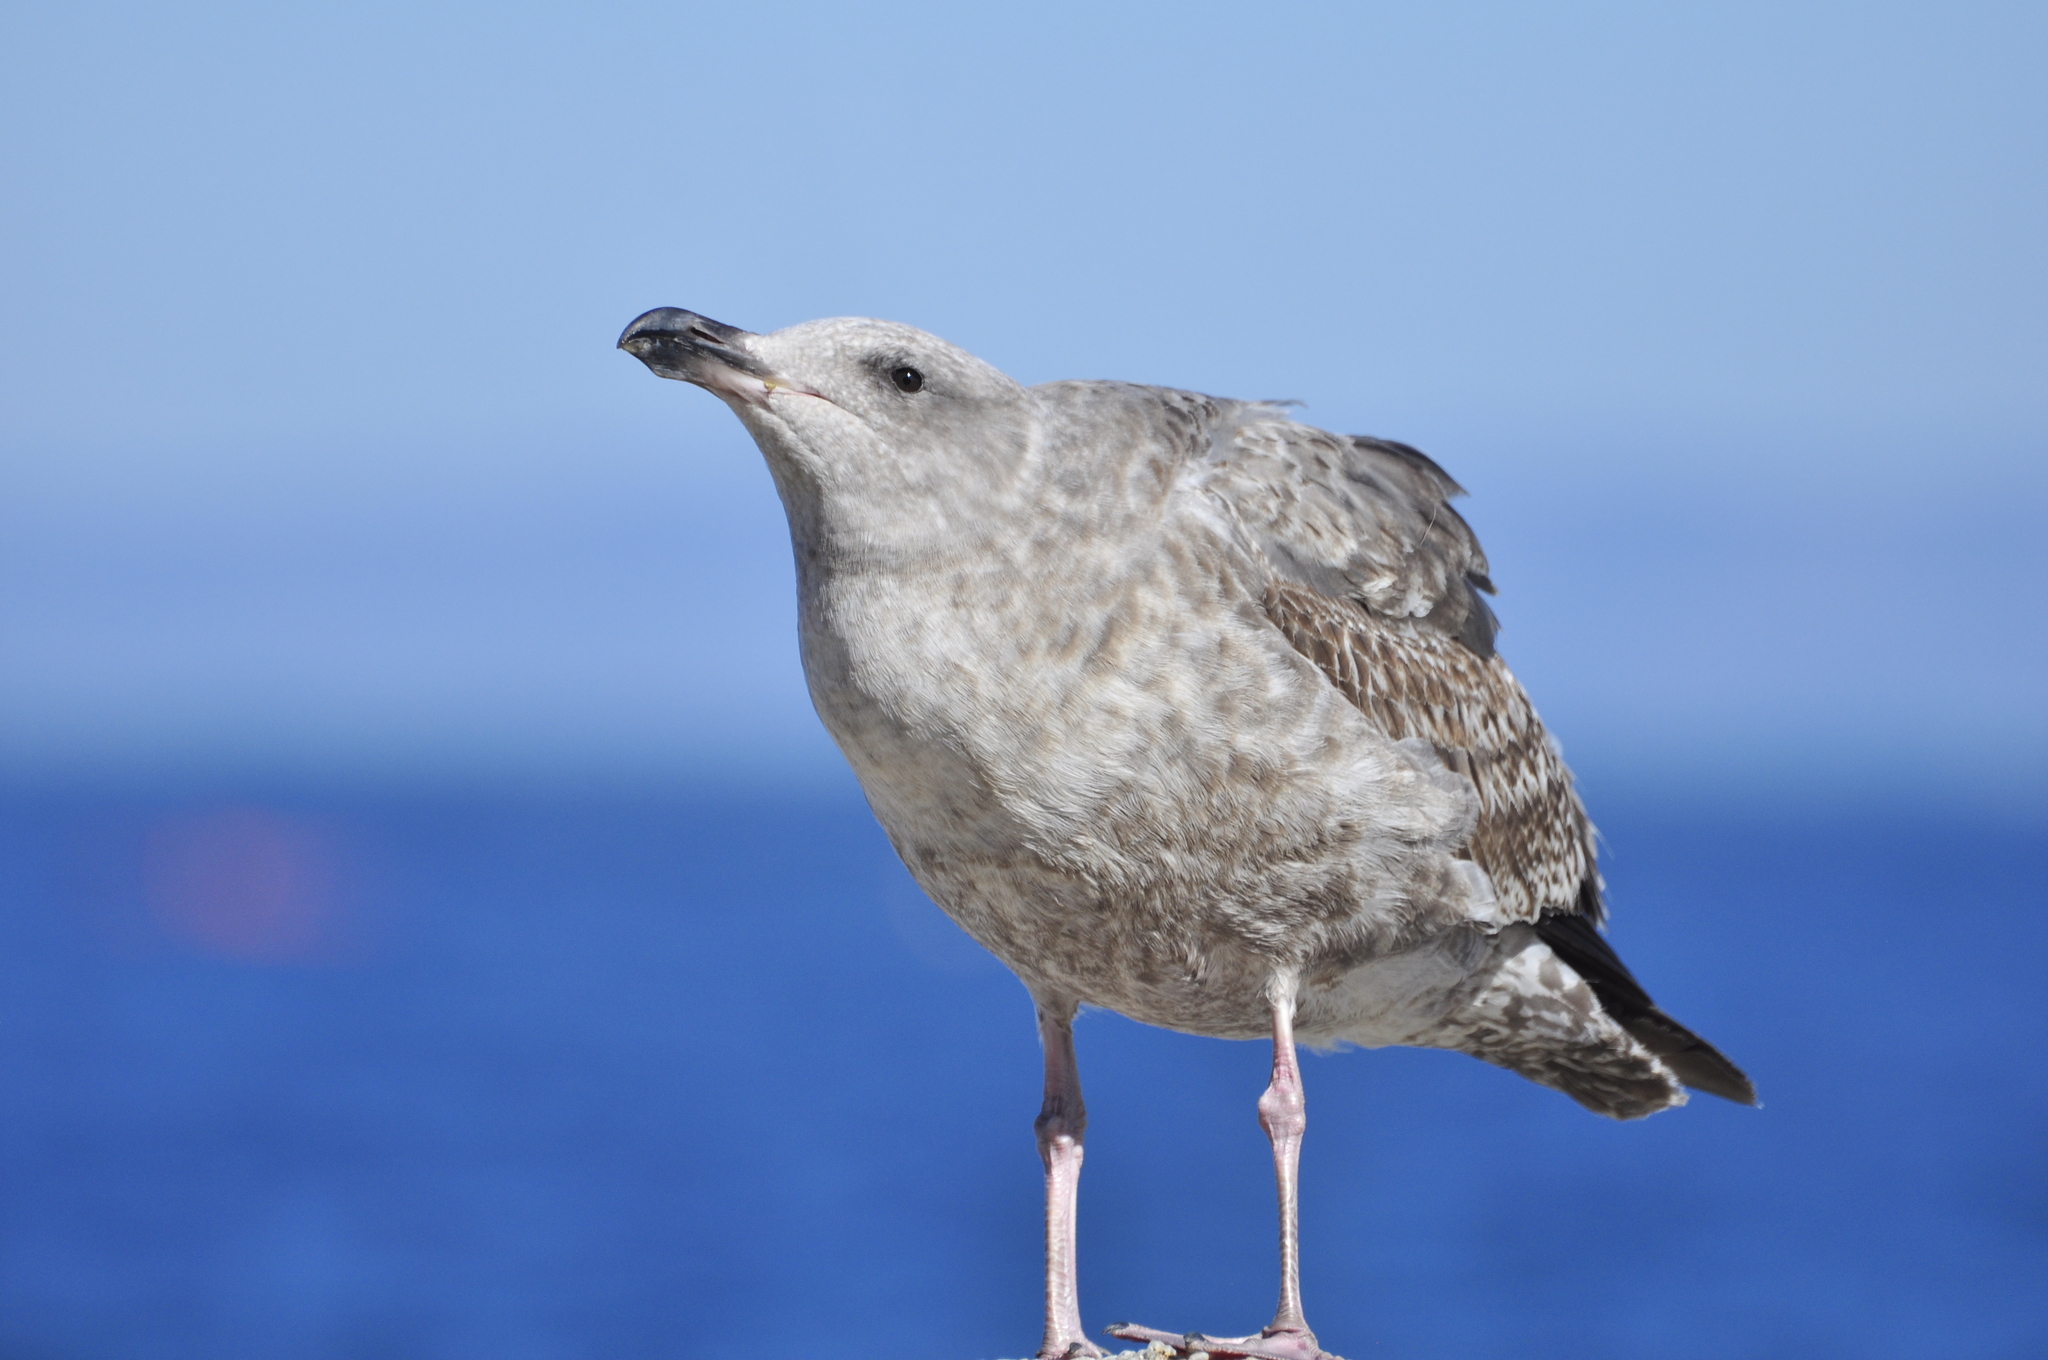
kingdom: Animalia
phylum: Chordata
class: Aves
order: Charadriiformes
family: Laridae
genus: Larus
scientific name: Larus occidentalis
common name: Western gull
